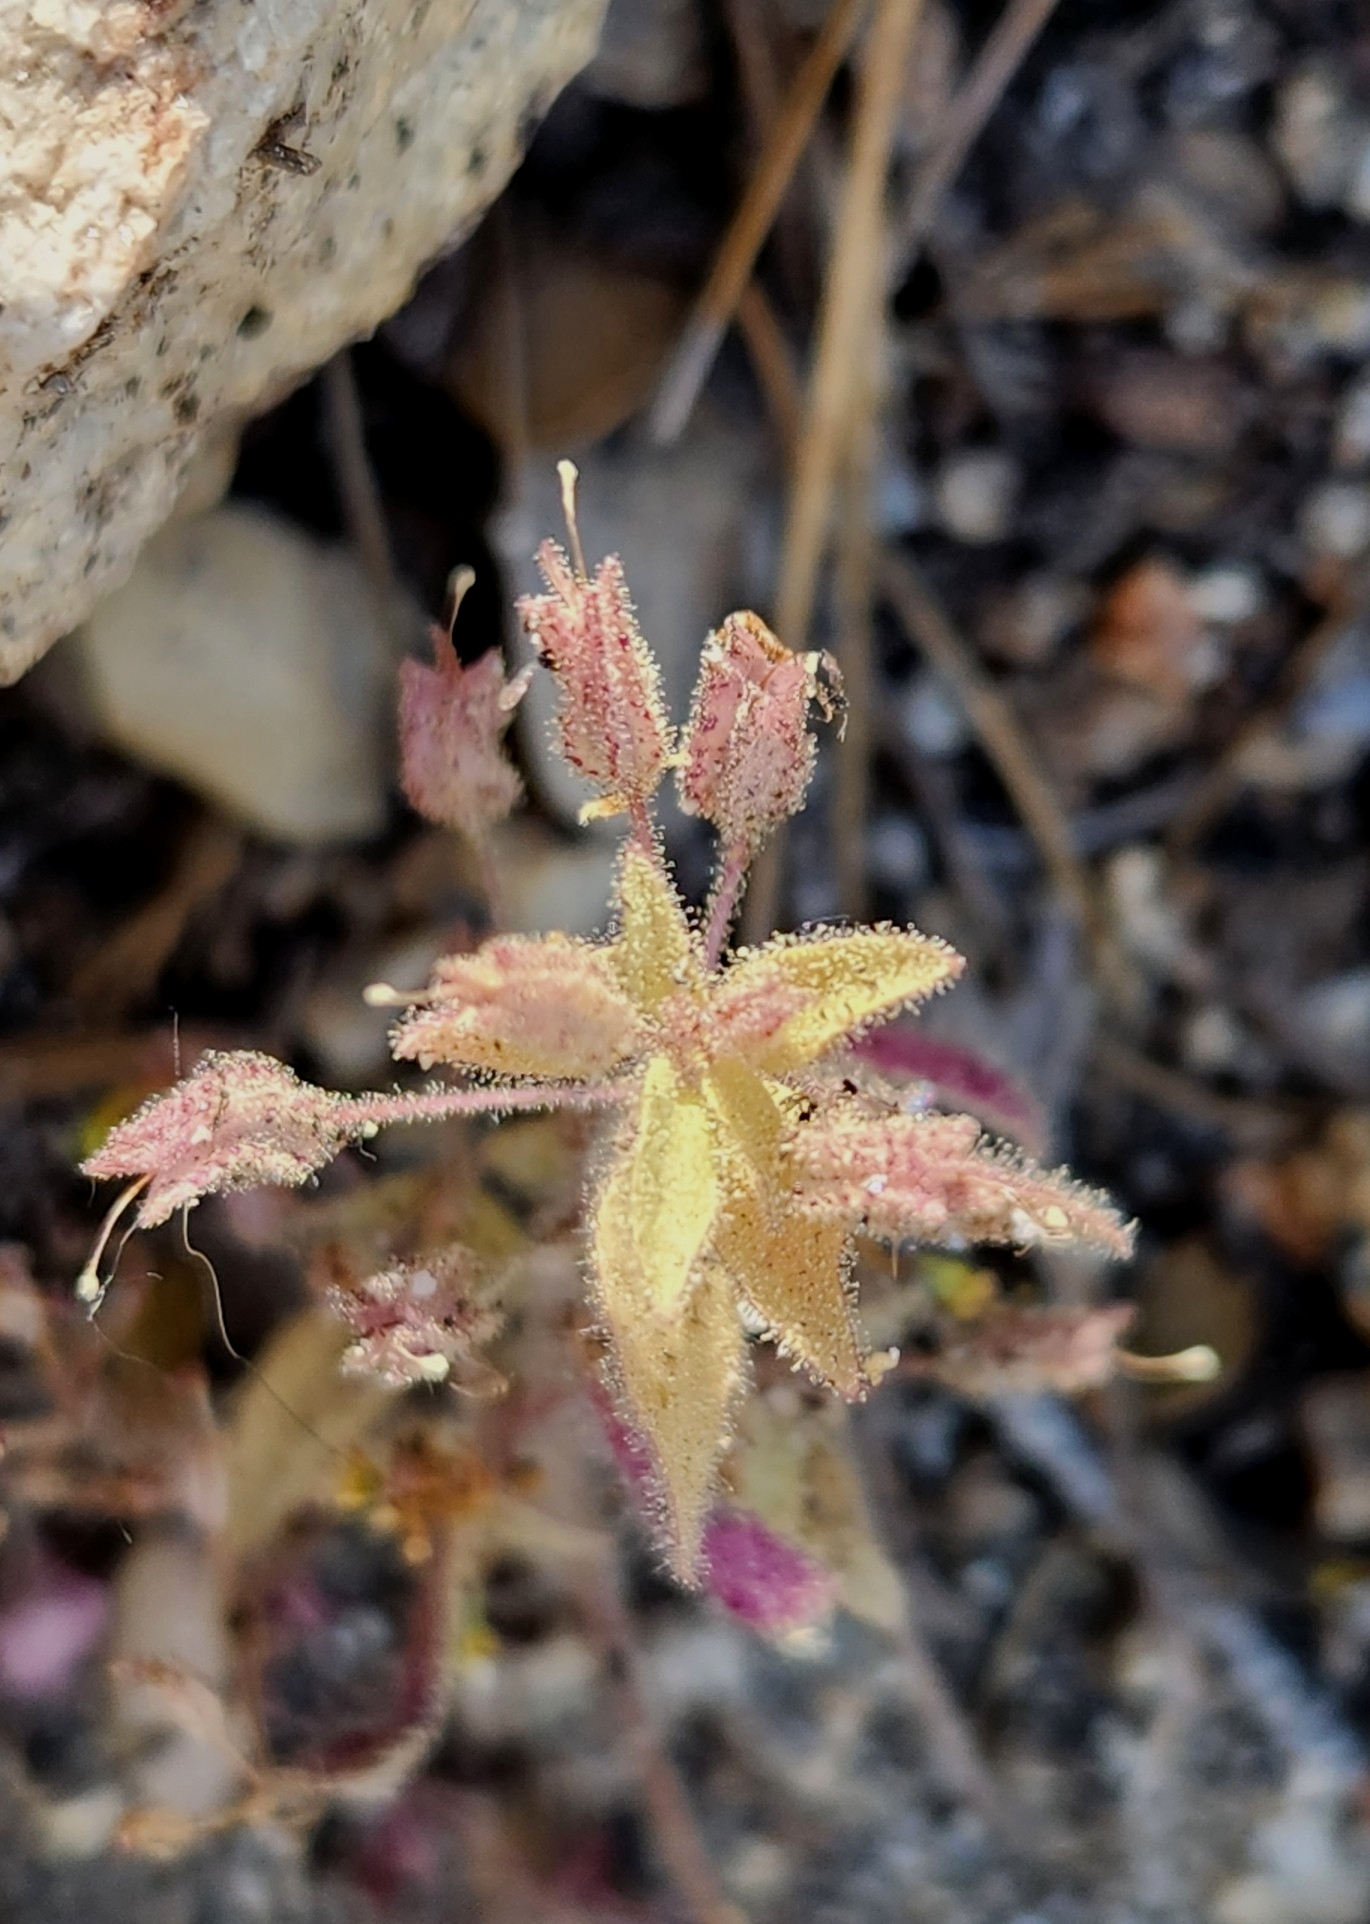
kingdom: Plantae
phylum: Tracheophyta
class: Magnoliopsida
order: Lamiales
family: Phrymaceae
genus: Erythranthe
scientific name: Erythranthe floribunda
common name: Floriferous monkeyflower
